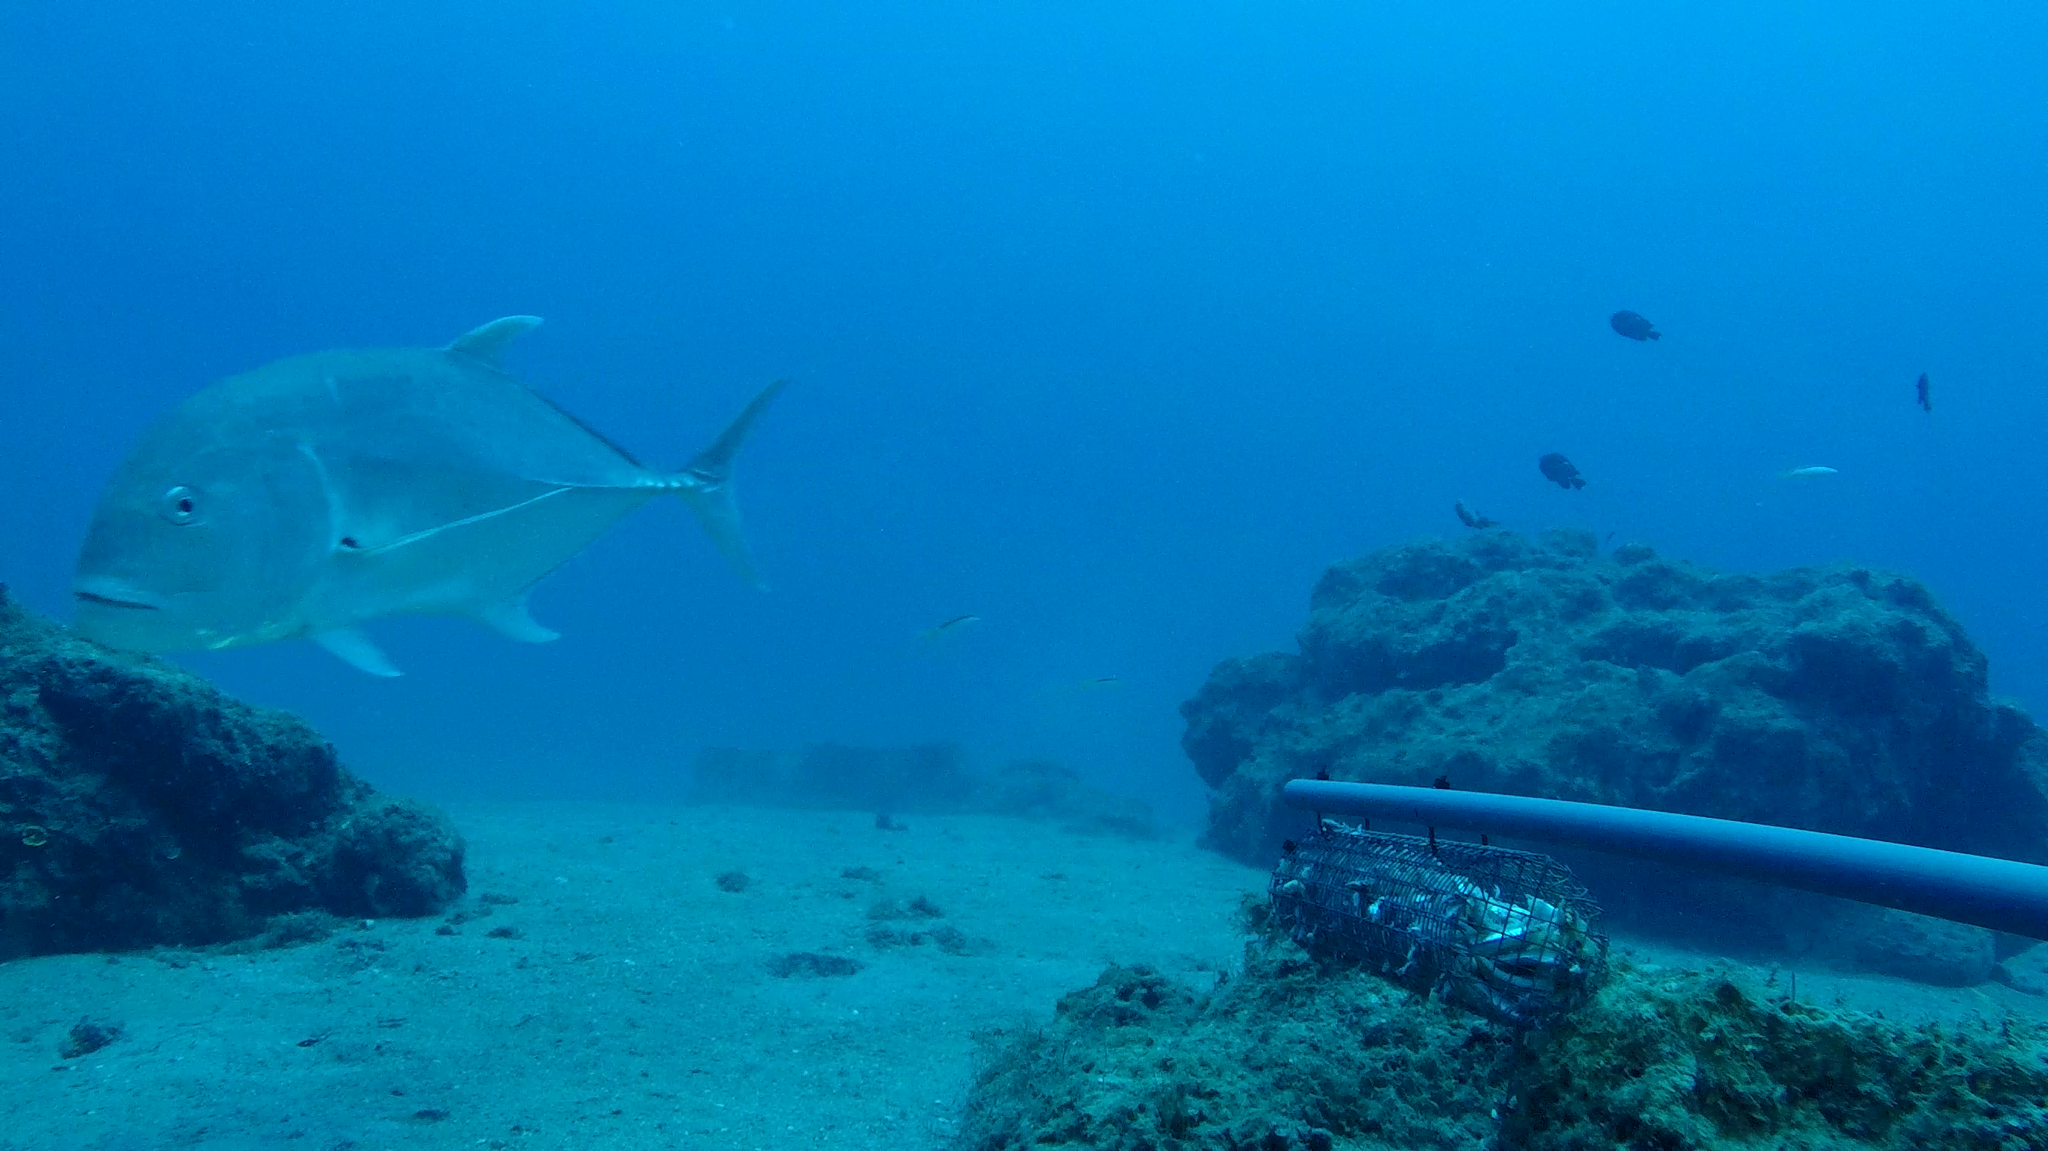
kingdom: Animalia
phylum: Chordata
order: Perciformes
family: Carangidae
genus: Caranx
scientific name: Caranx ignobilis
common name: Giant trevally
